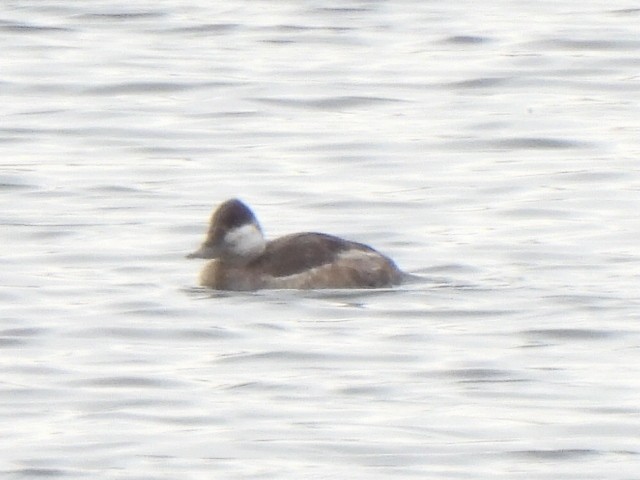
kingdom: Animalia
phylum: Chordata
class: Aves
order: Anseriformes
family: Anatidae
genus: Oxyura
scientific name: Oxyura jamaicensis
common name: Ruddy duck
